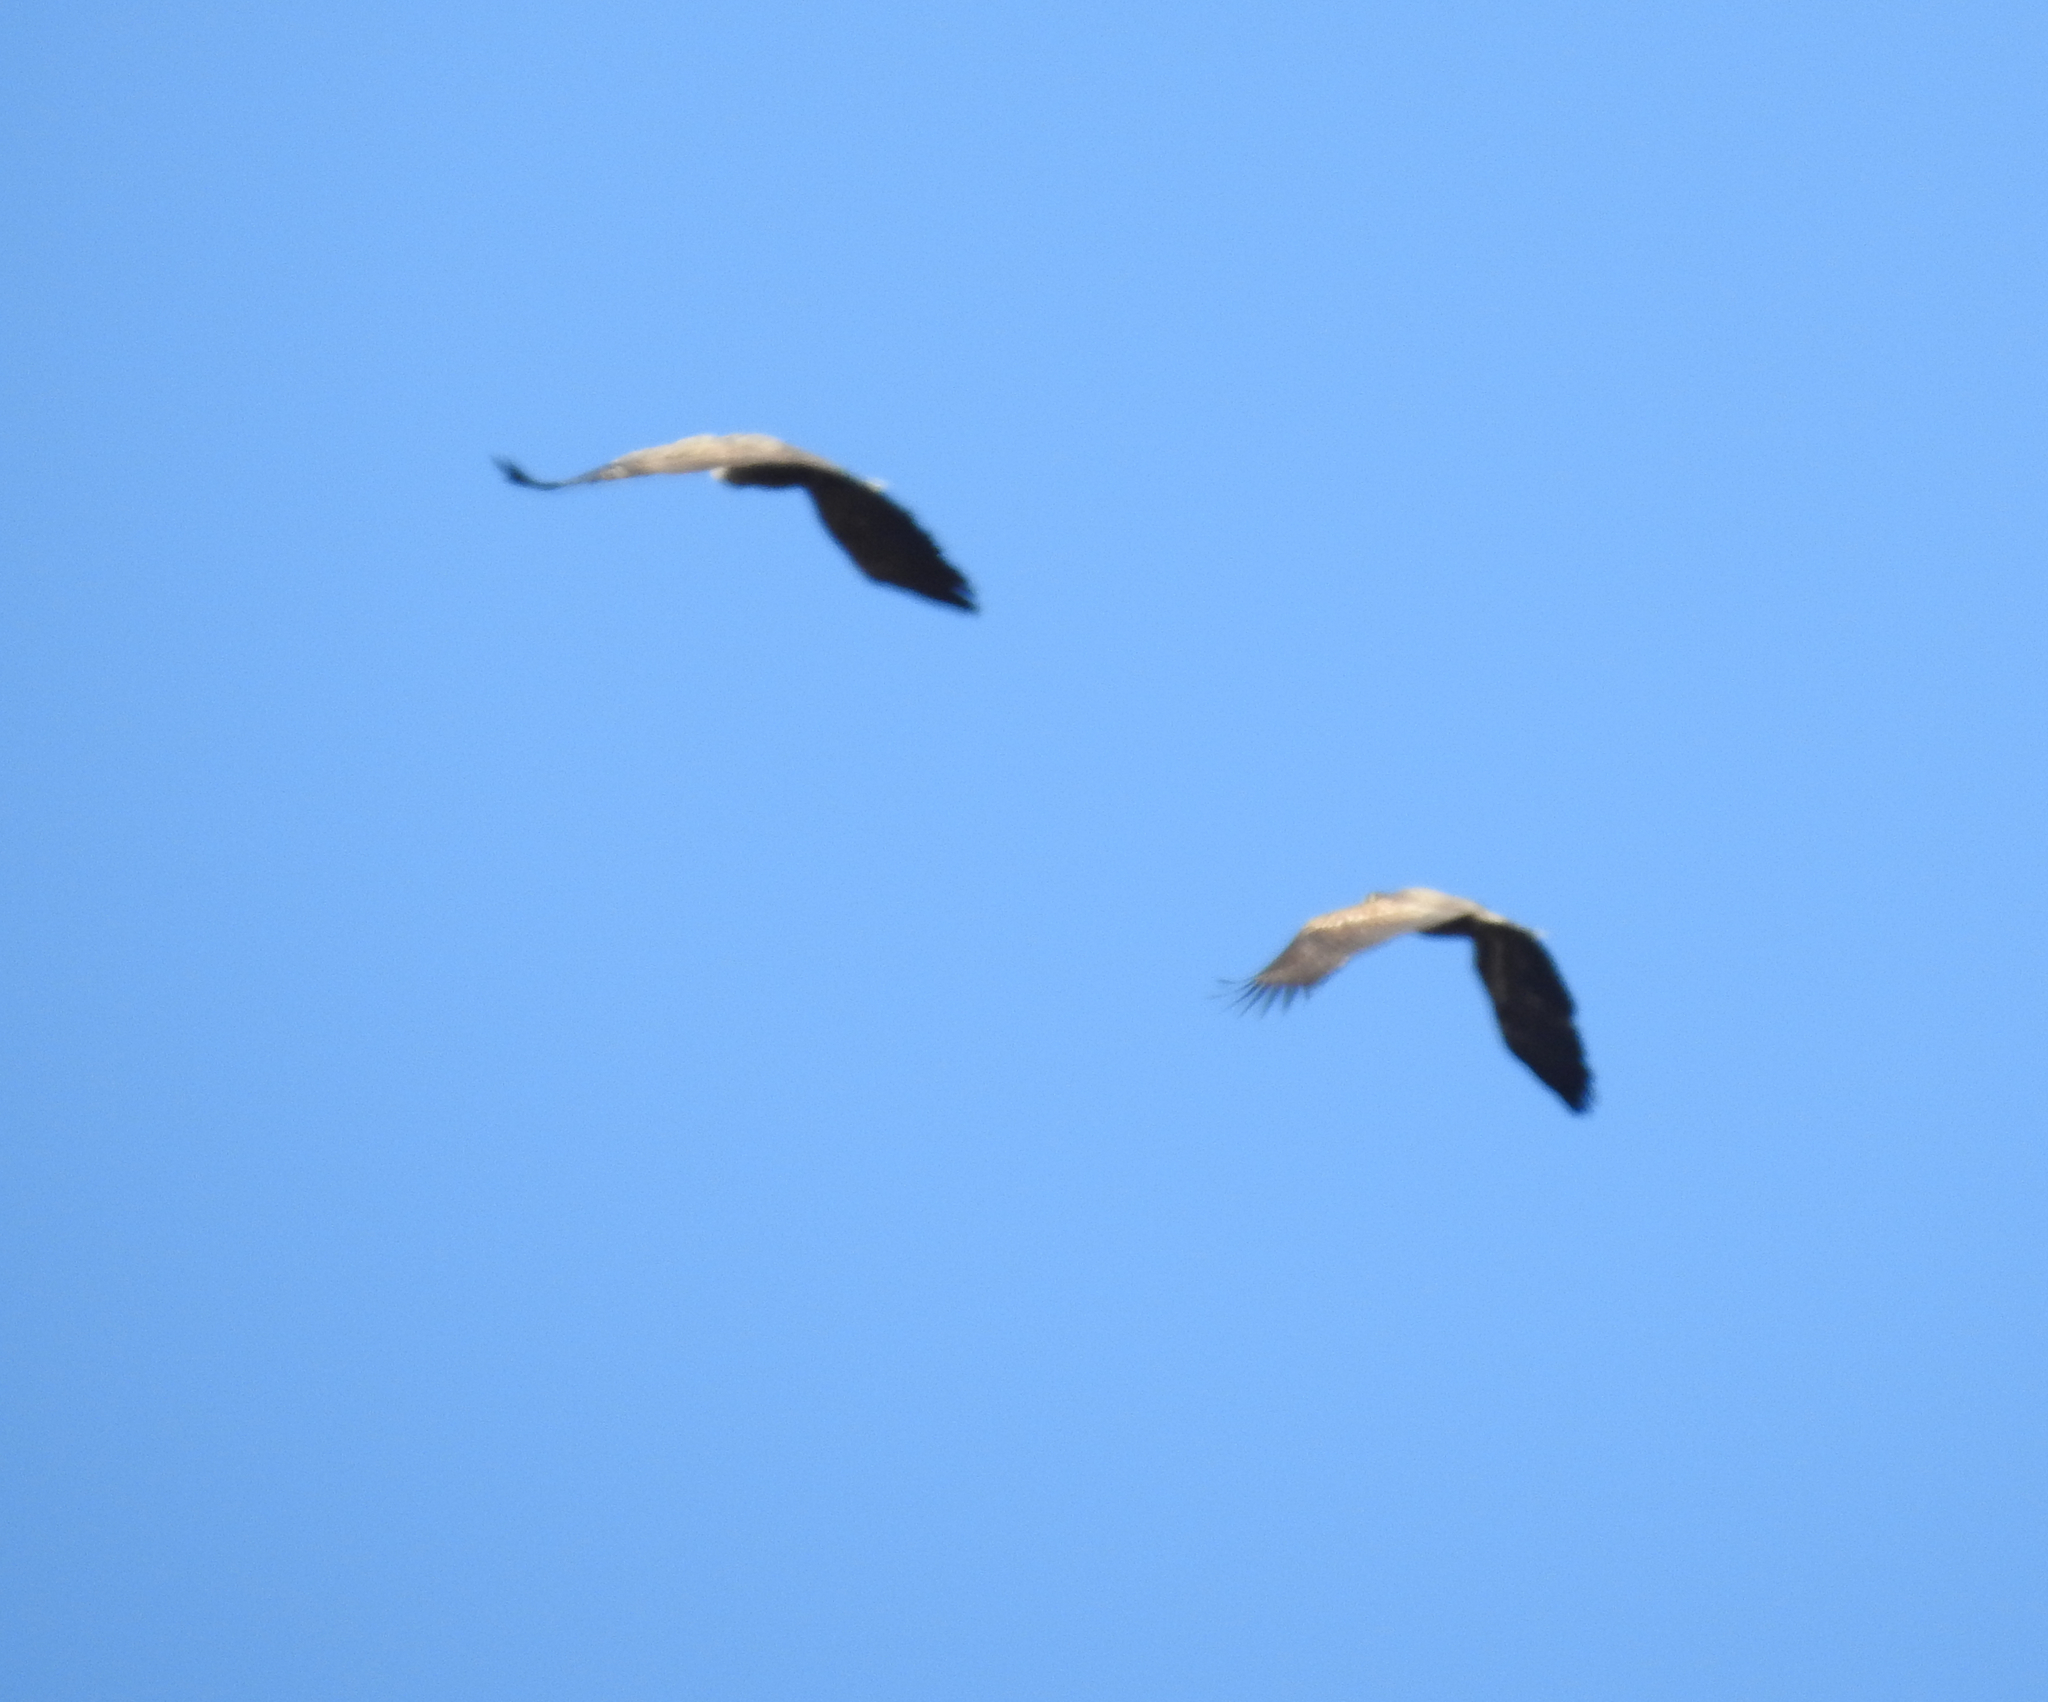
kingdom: Animalia
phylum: Chordata
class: Aves
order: Accipitriformes
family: Accipitridae
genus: Haliaeetus
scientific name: Haliaeetus albicilla
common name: White-tailed eagle
